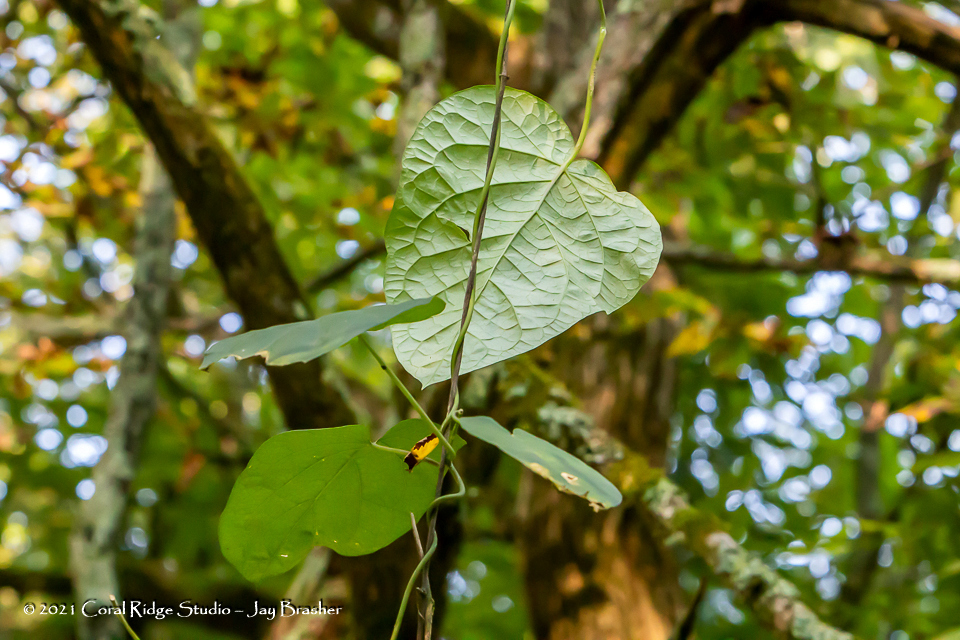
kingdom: Plantae
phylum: Tracheophyta
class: Magnoliopsida
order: Gentianales
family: Apocynaceae
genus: Gonolobus
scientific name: Gonolobus suberosus
